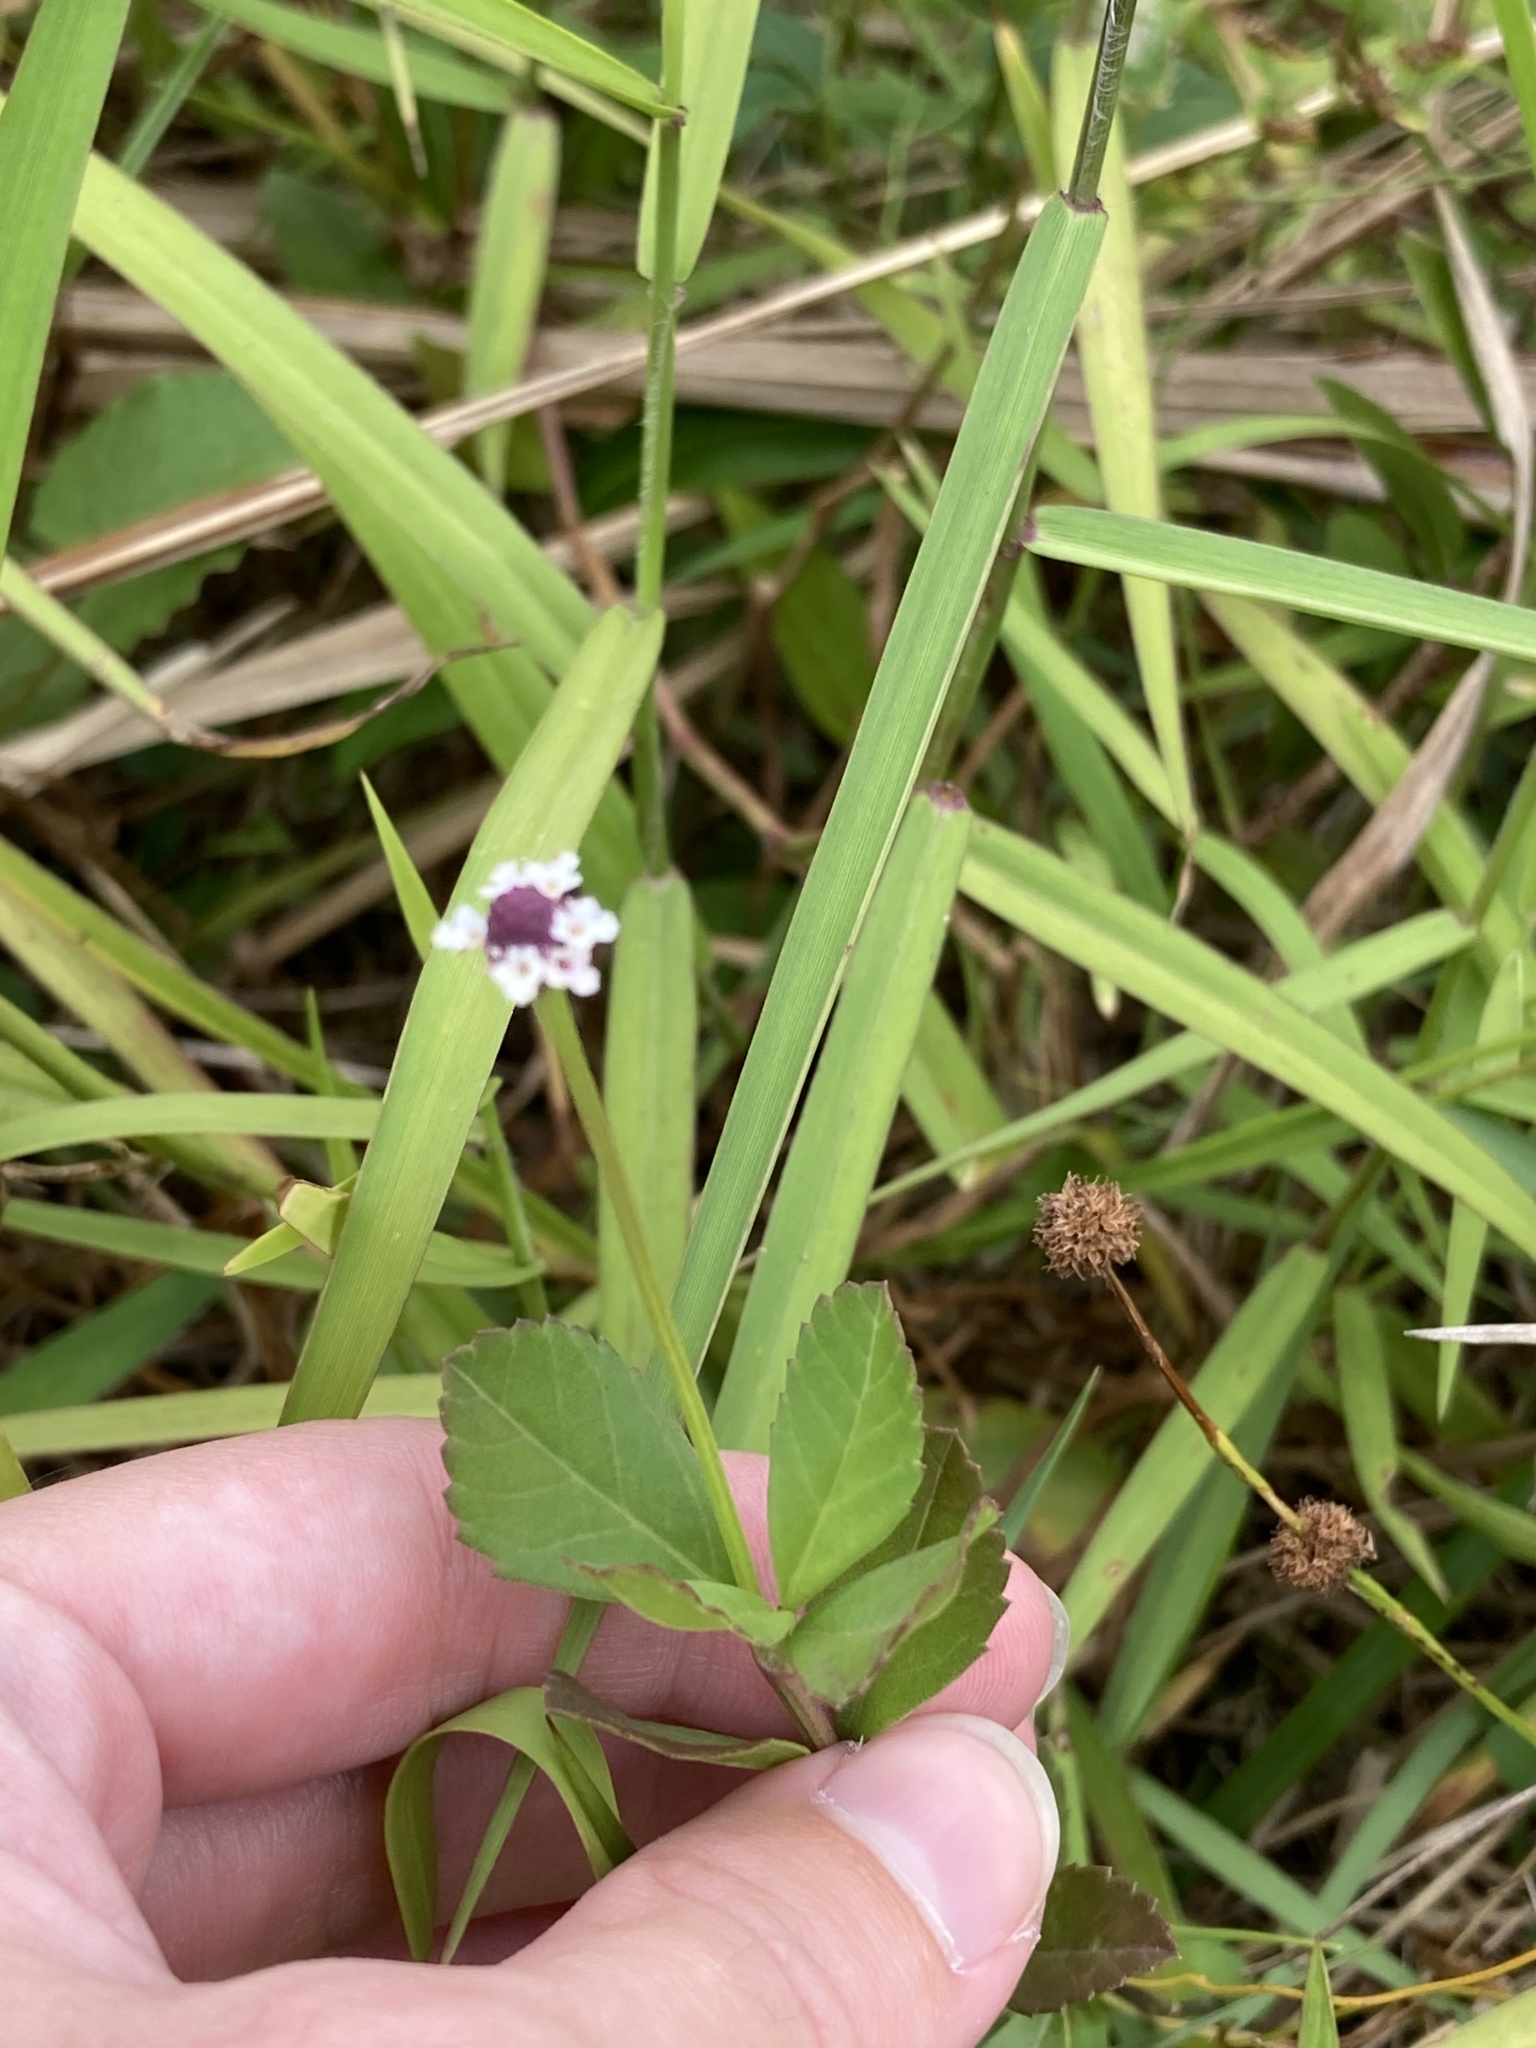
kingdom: Plantae
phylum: Tracheophyta
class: Magnoliopsida
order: Lamiales
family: Verbenaceae
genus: Phyla
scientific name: Phyla nodiflora
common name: Frogfruit
